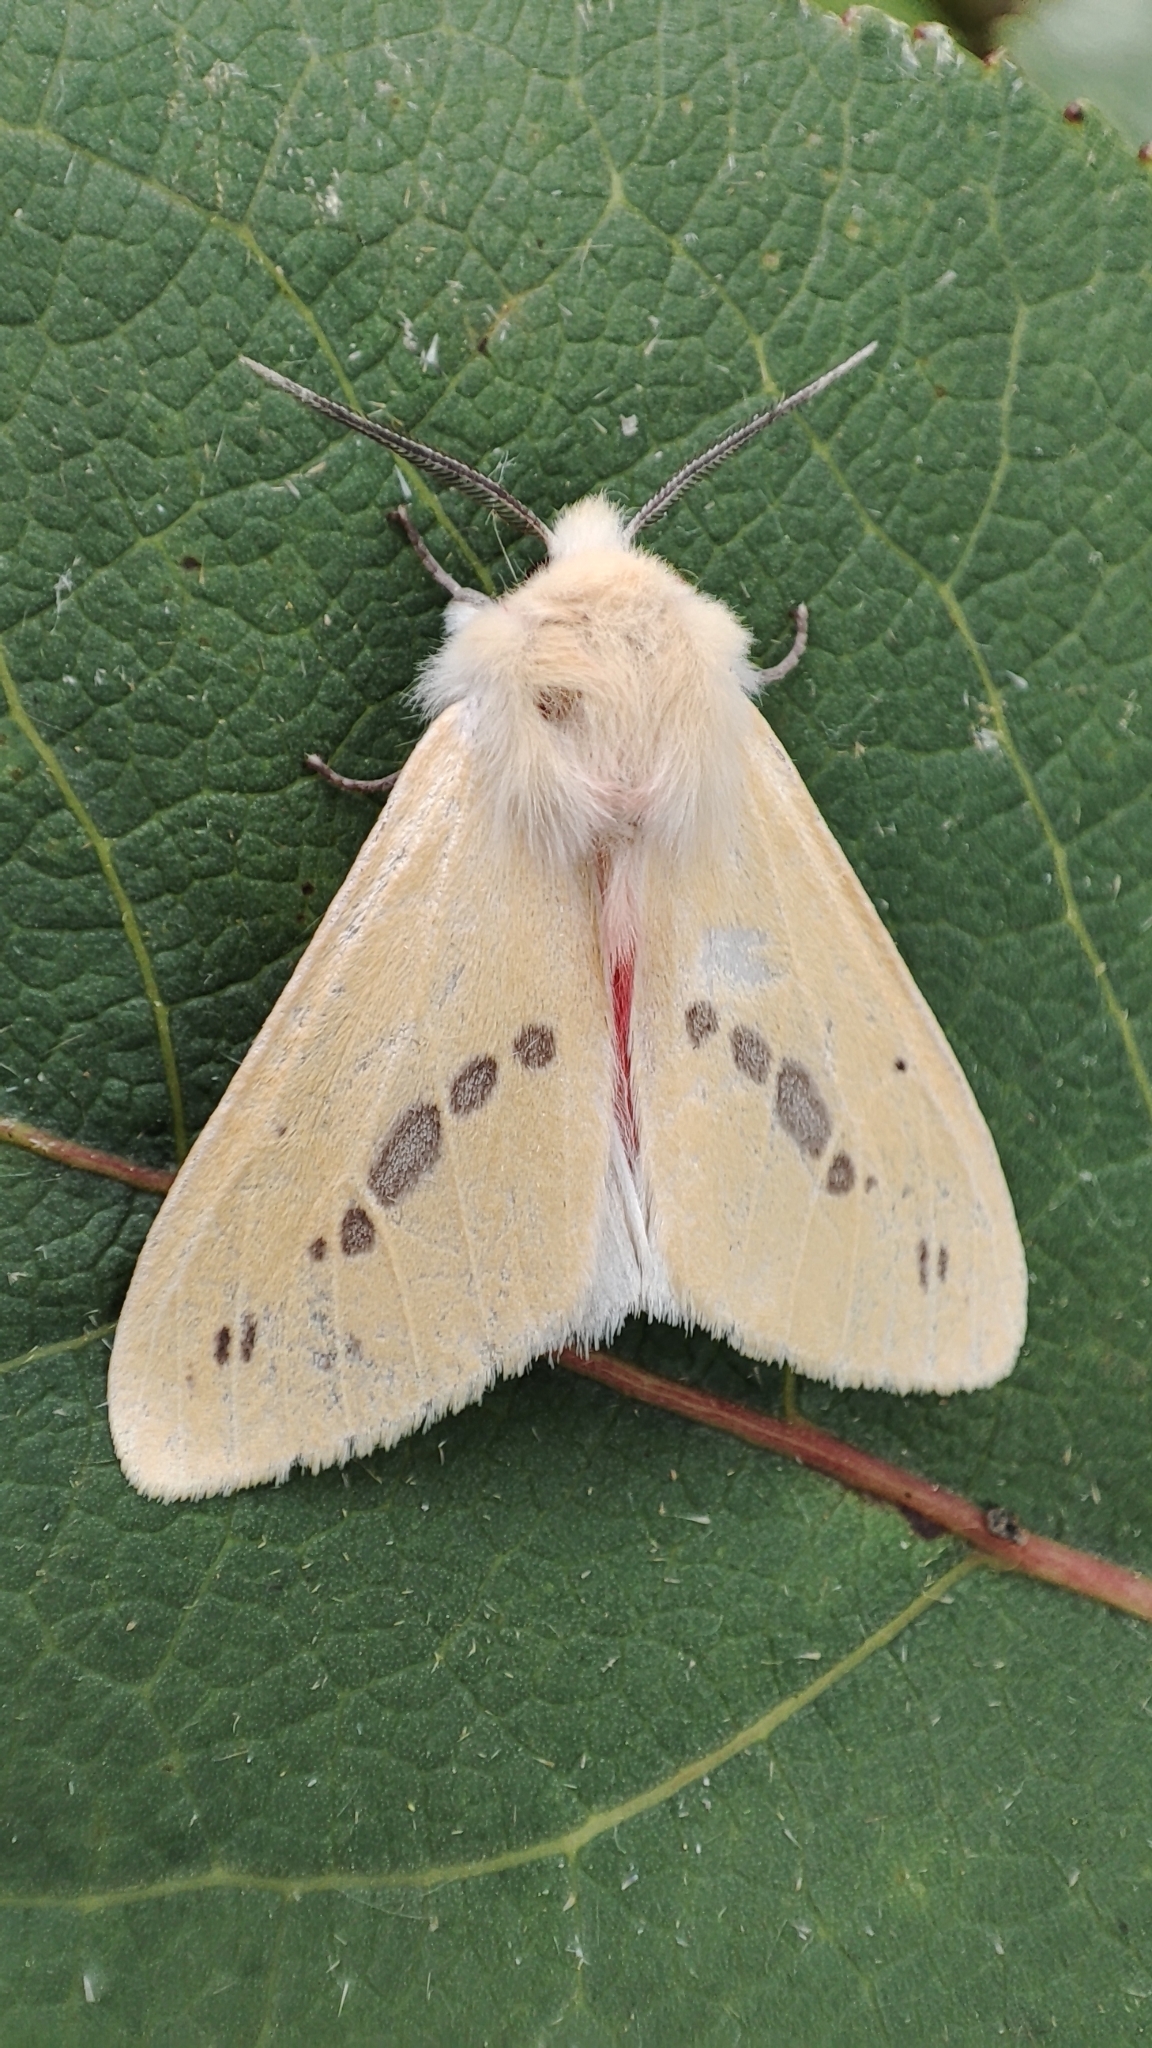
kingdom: Animalia
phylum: Arthropoda
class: Insecta
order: Lepidoptera
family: Erebidae
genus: Lemyra
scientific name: Lemyra jankowskii
